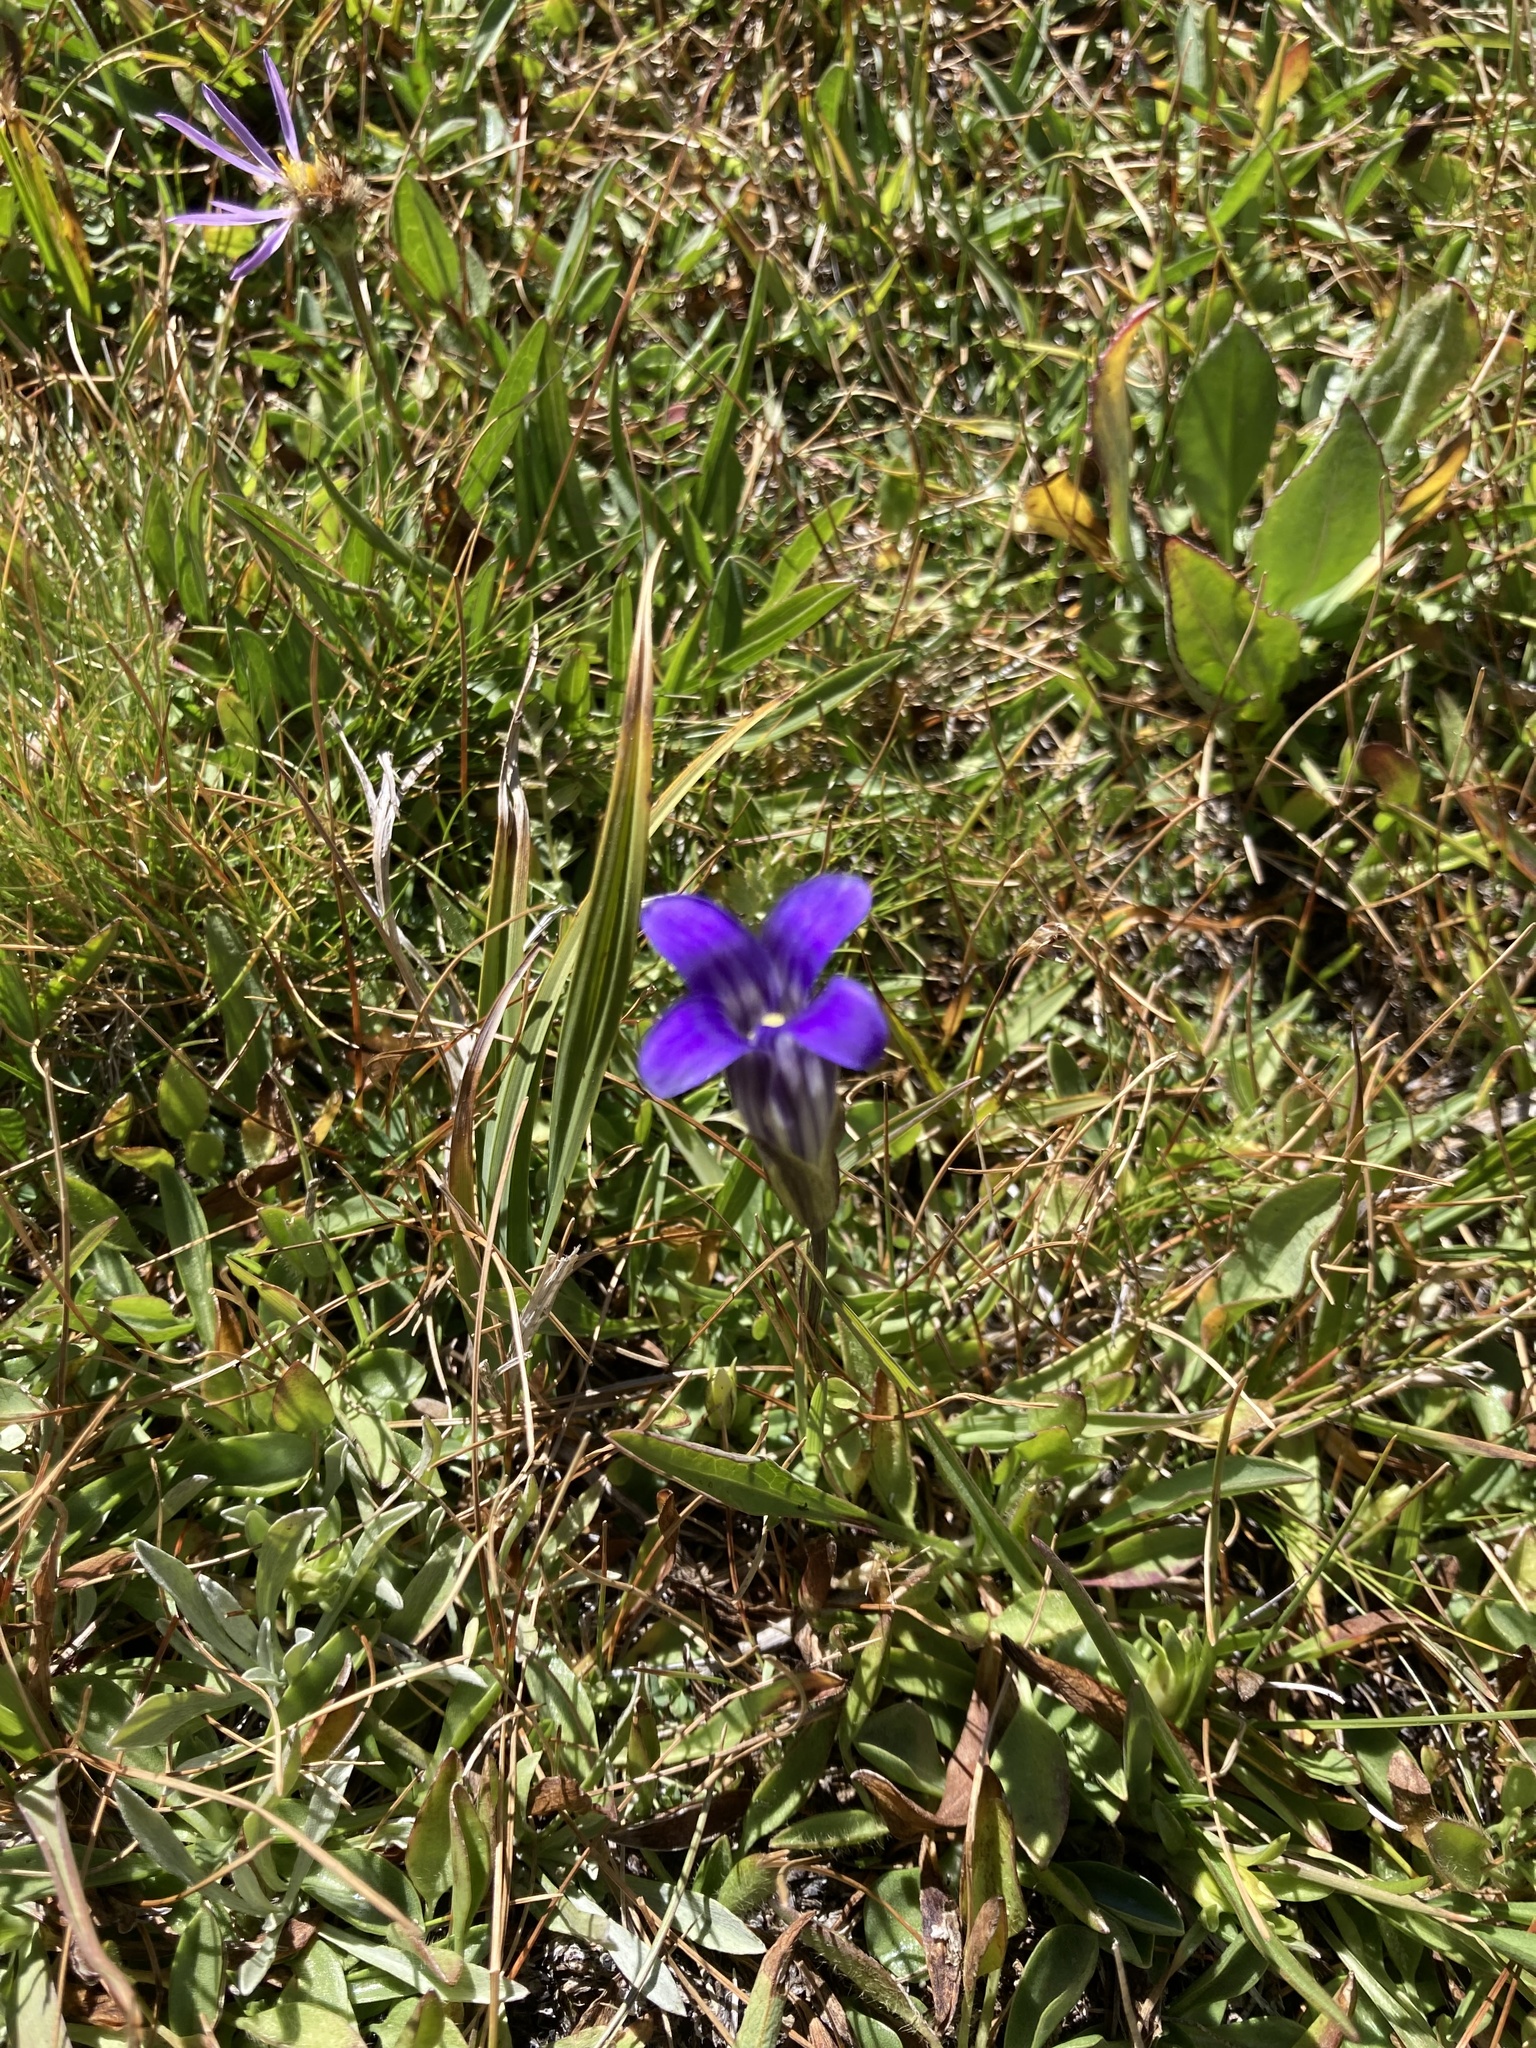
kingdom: Plantae
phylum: Tracheophyta
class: Magnoliopsida
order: Gentianales
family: Gentianaceae
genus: Gentianopsis
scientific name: Gentianopsis holopetala
